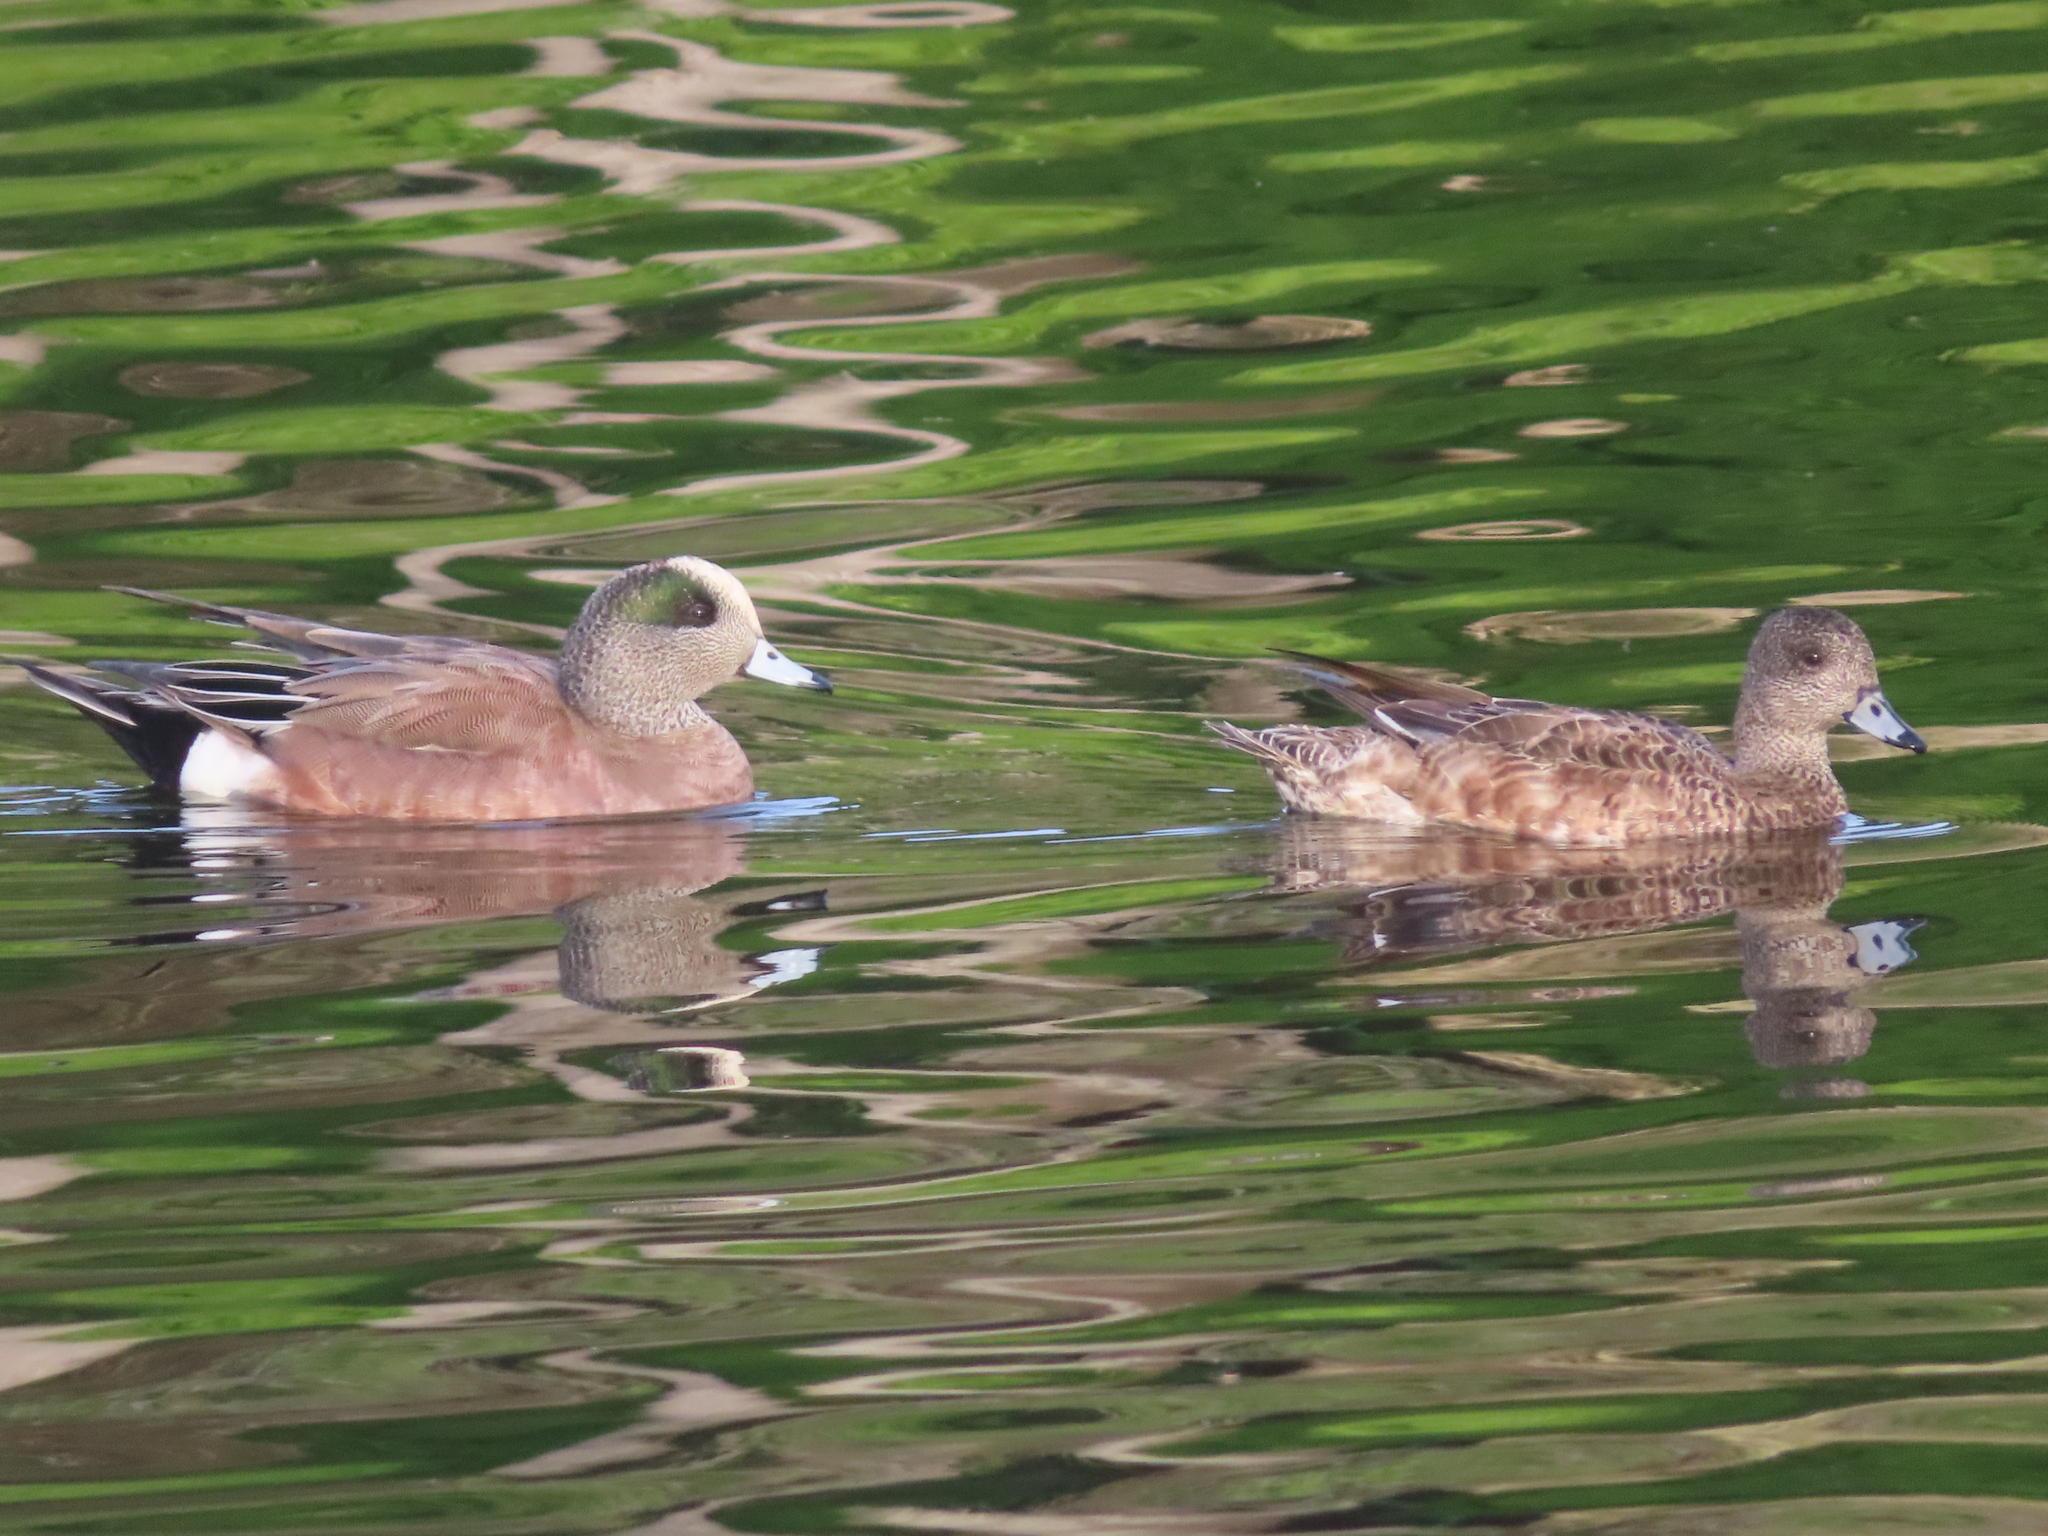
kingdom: Animalia
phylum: Chordata
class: Aves
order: Anseriformes
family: Anatidae
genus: Mareca
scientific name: Mareca americana
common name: American wigeon
